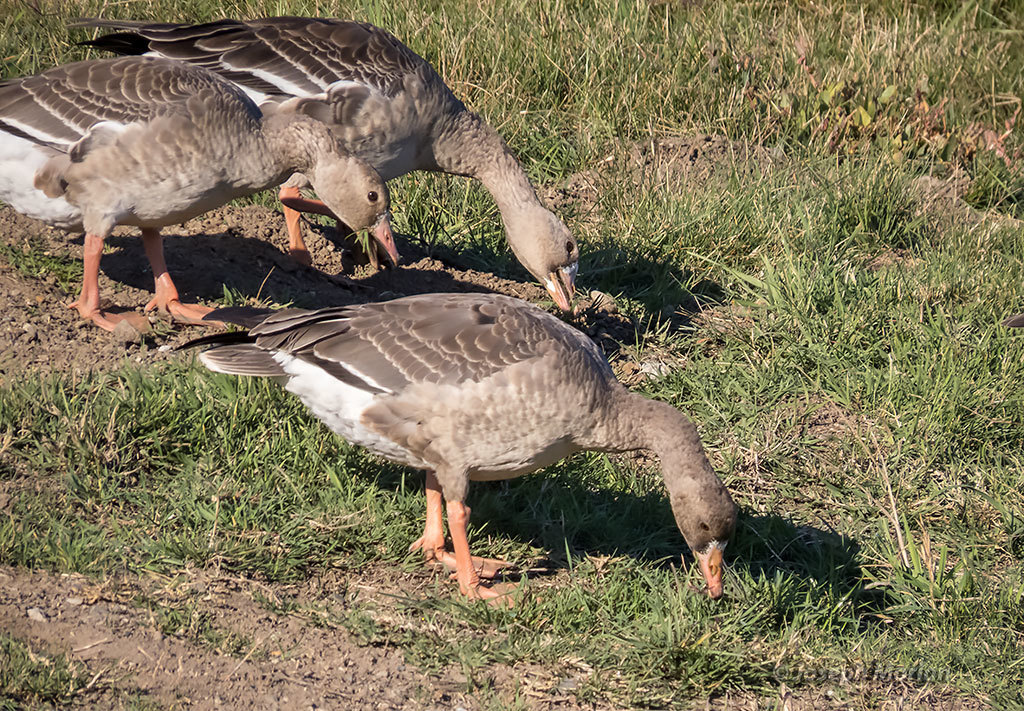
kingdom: Animalia
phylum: Chordata
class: Aves
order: Anseriformes
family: Anatidae
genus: Anser
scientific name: Anser albifrons
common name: Greater white-fronted goose
